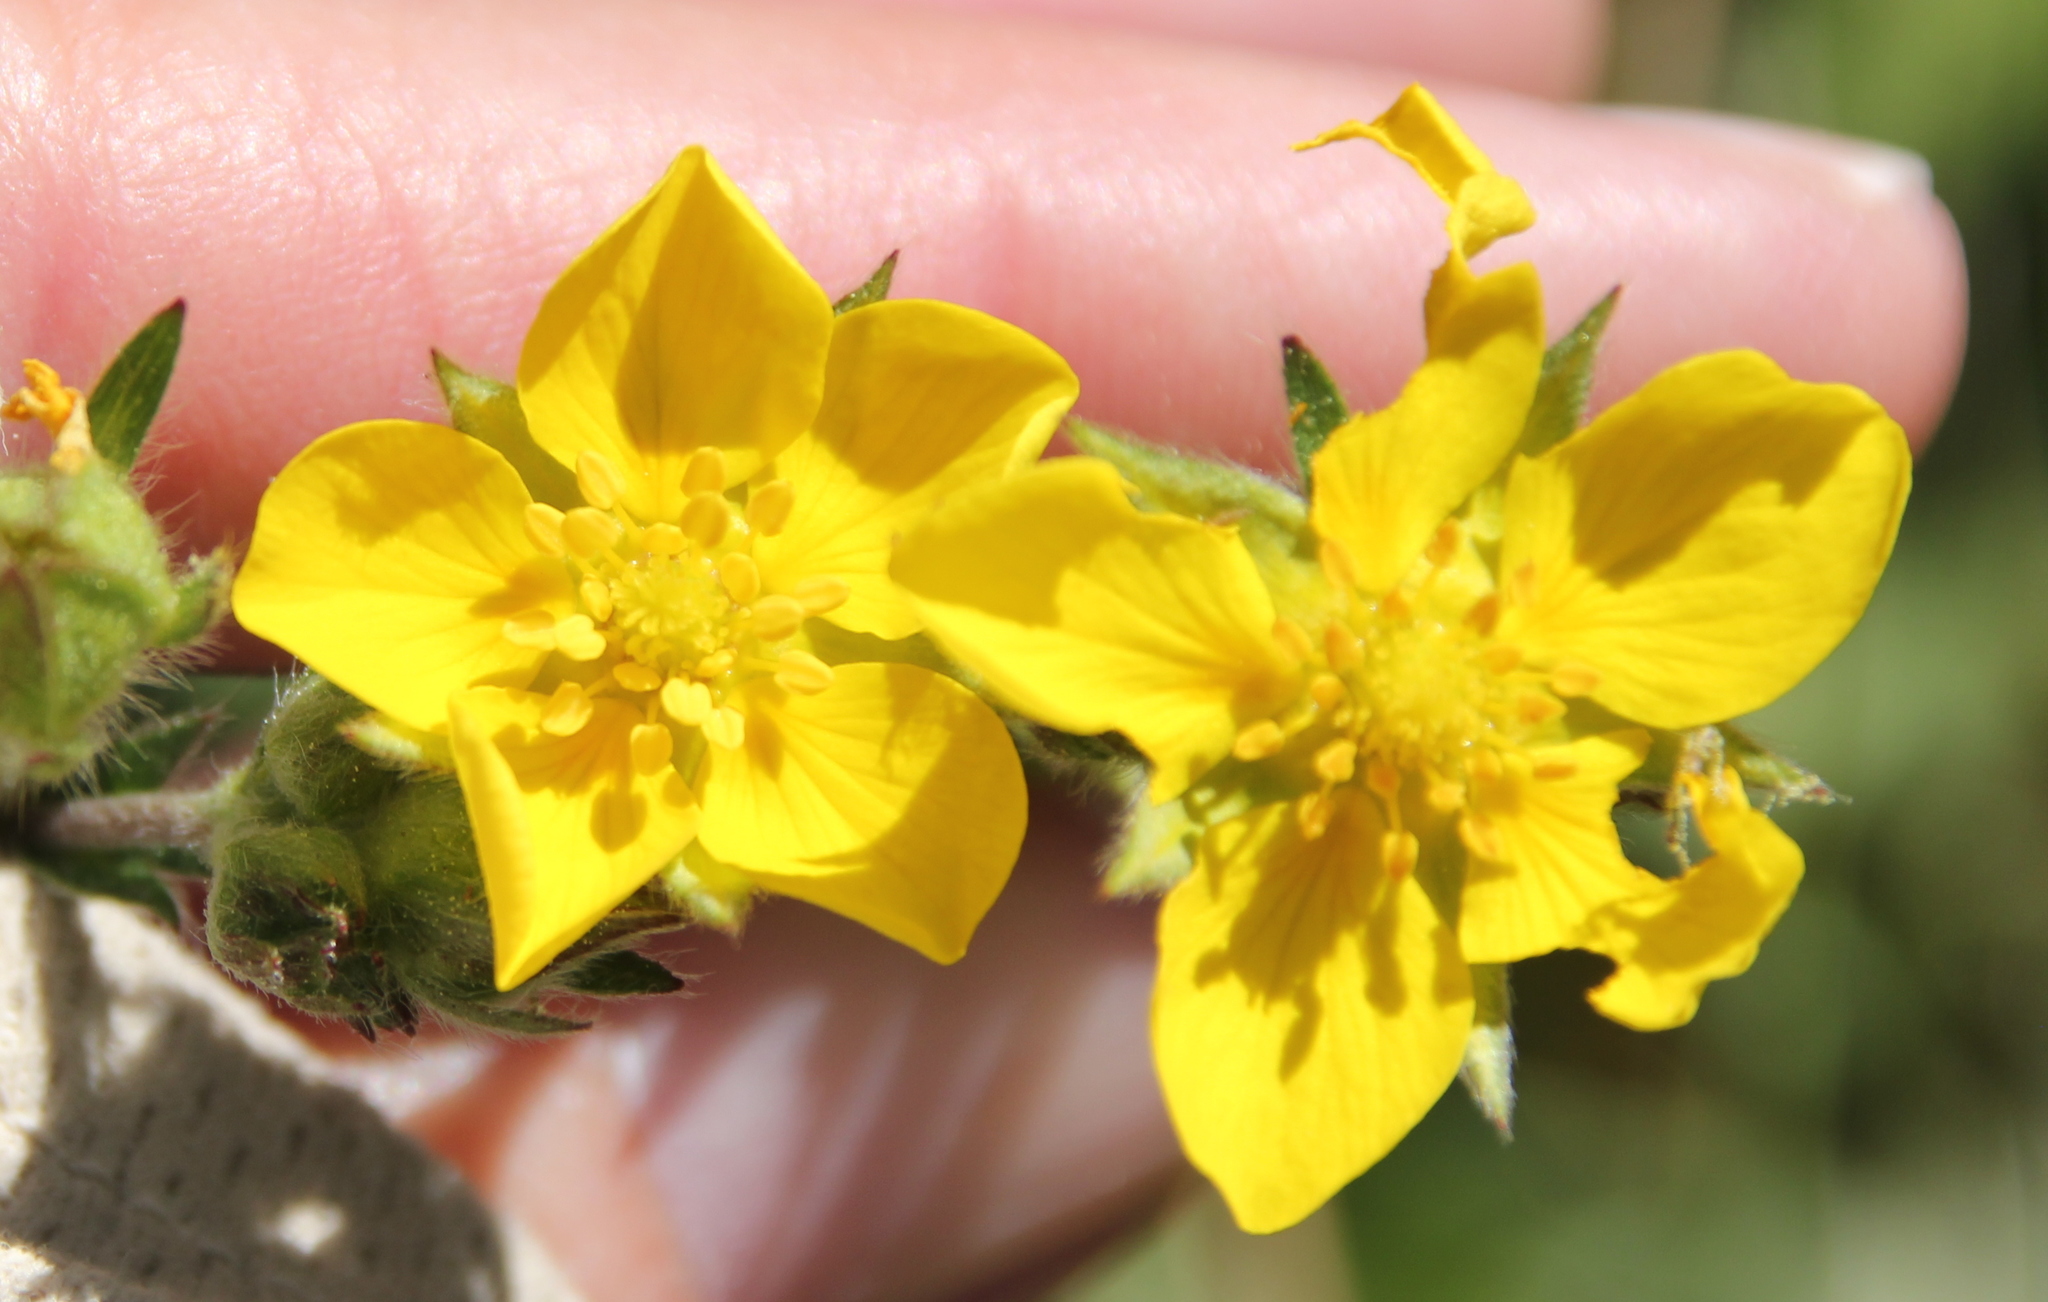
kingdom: Plantae
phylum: Tracheophyta
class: Magnoliopsida
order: Rosales
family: Rosaceae
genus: Potentilla
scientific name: Potentilla gracilis
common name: Graceful cinquefoil
